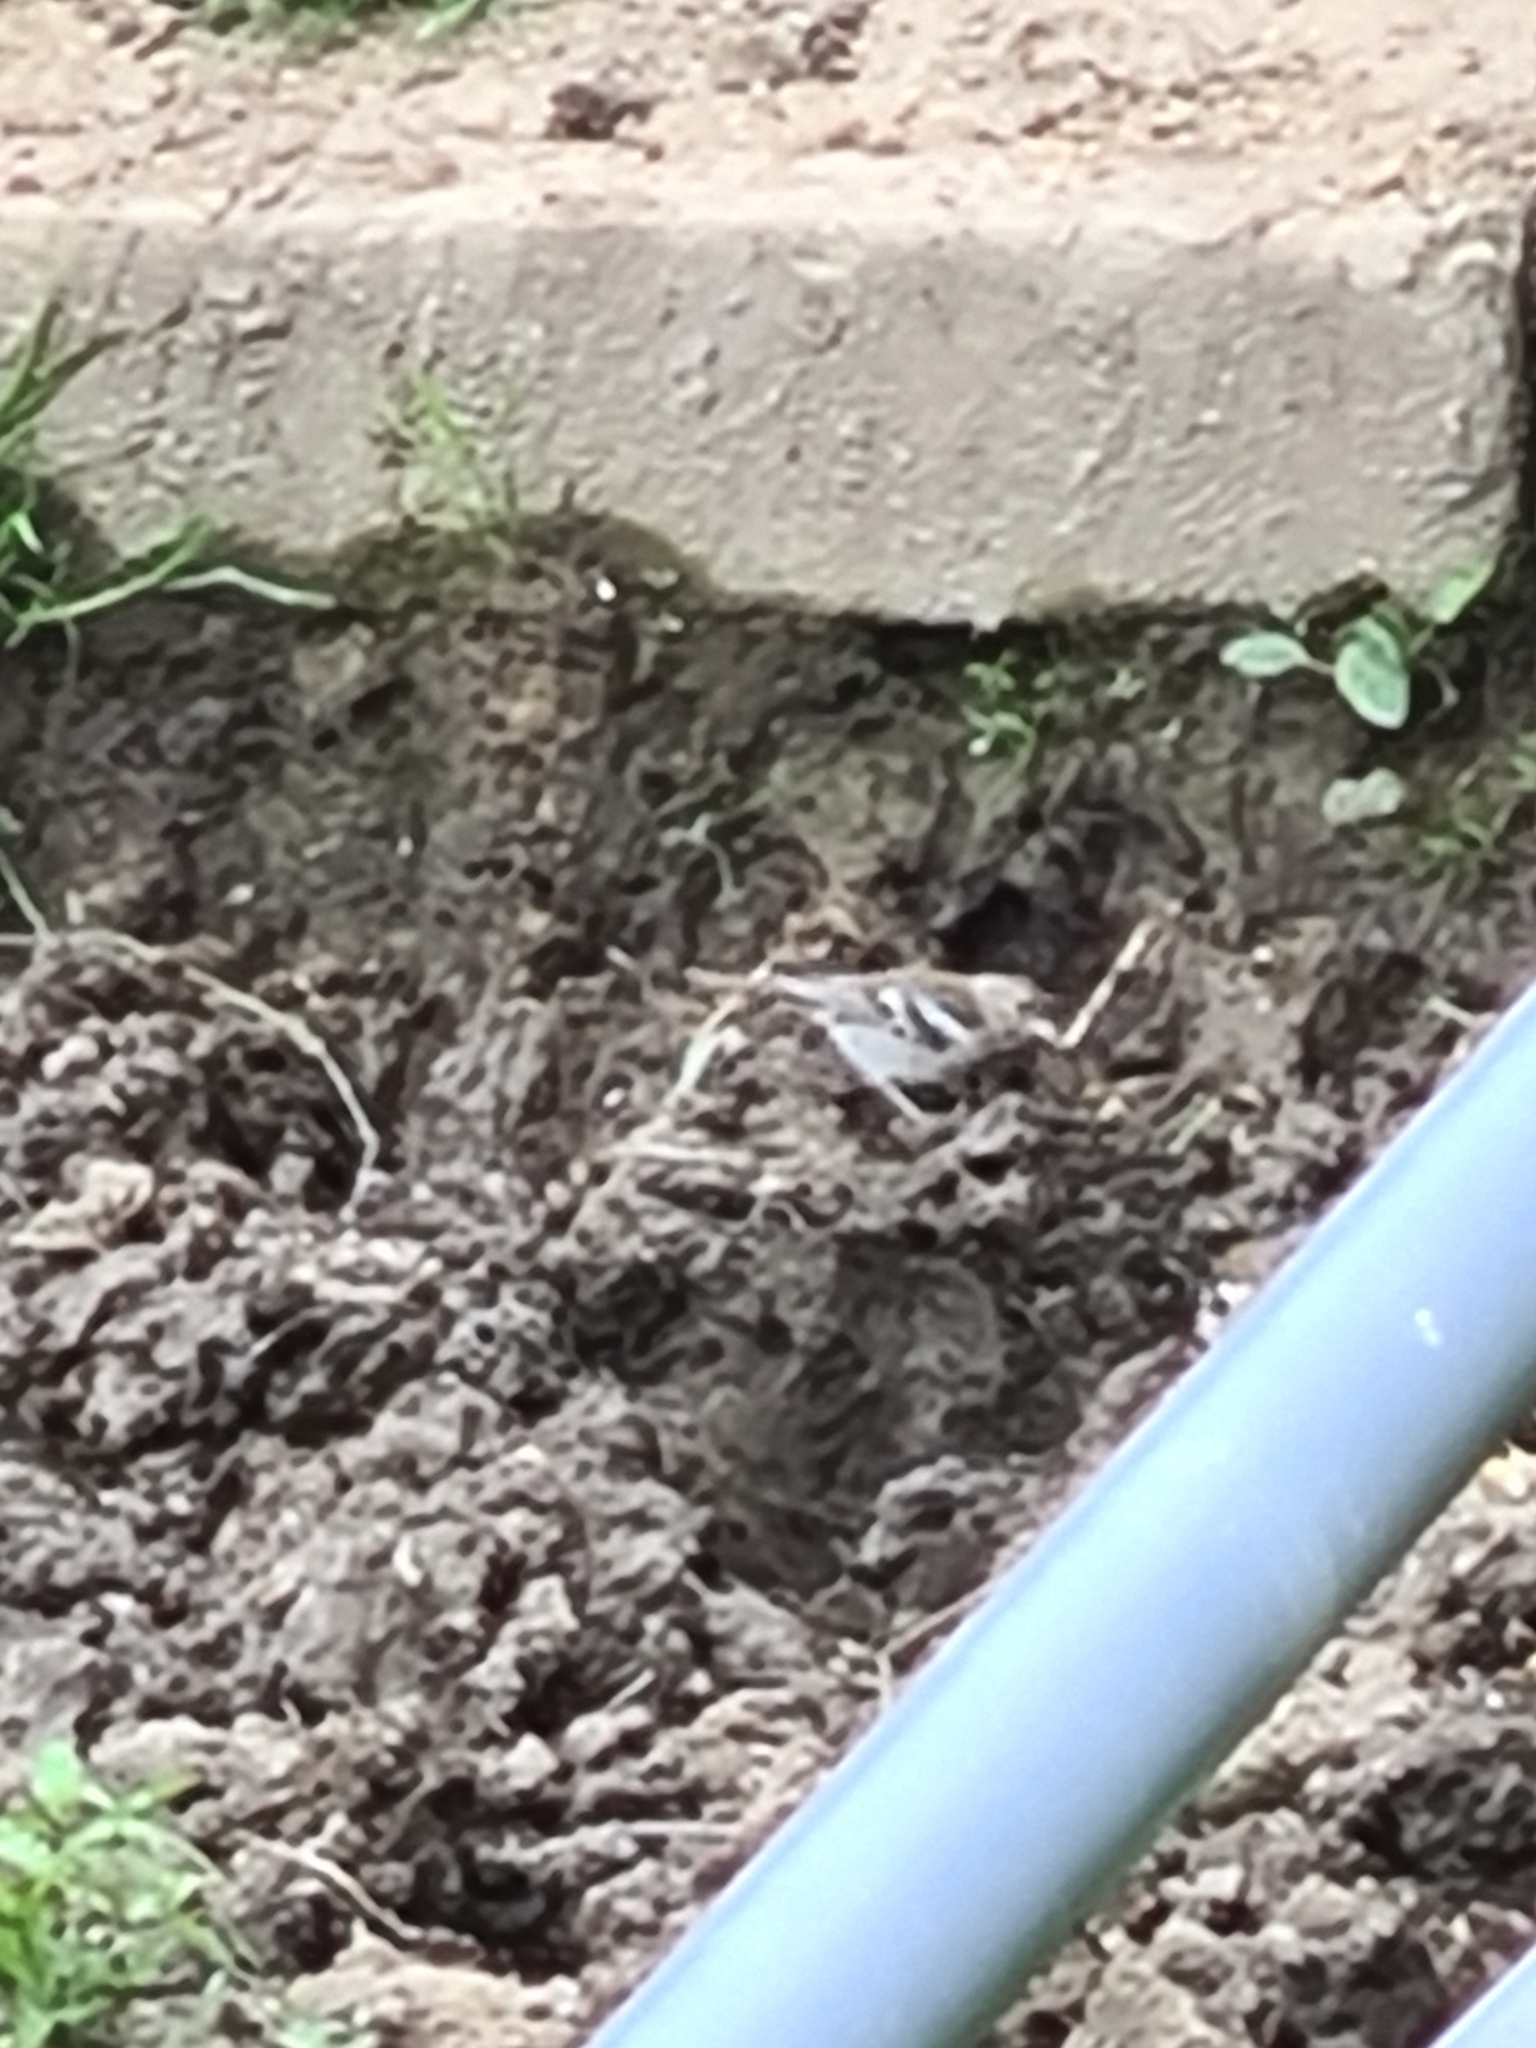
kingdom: Animalia
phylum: Chordata
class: Aves
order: Passeriformes
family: Fringillidae
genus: Fringilla
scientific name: Fringilla coelebs
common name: Common chaffinch
